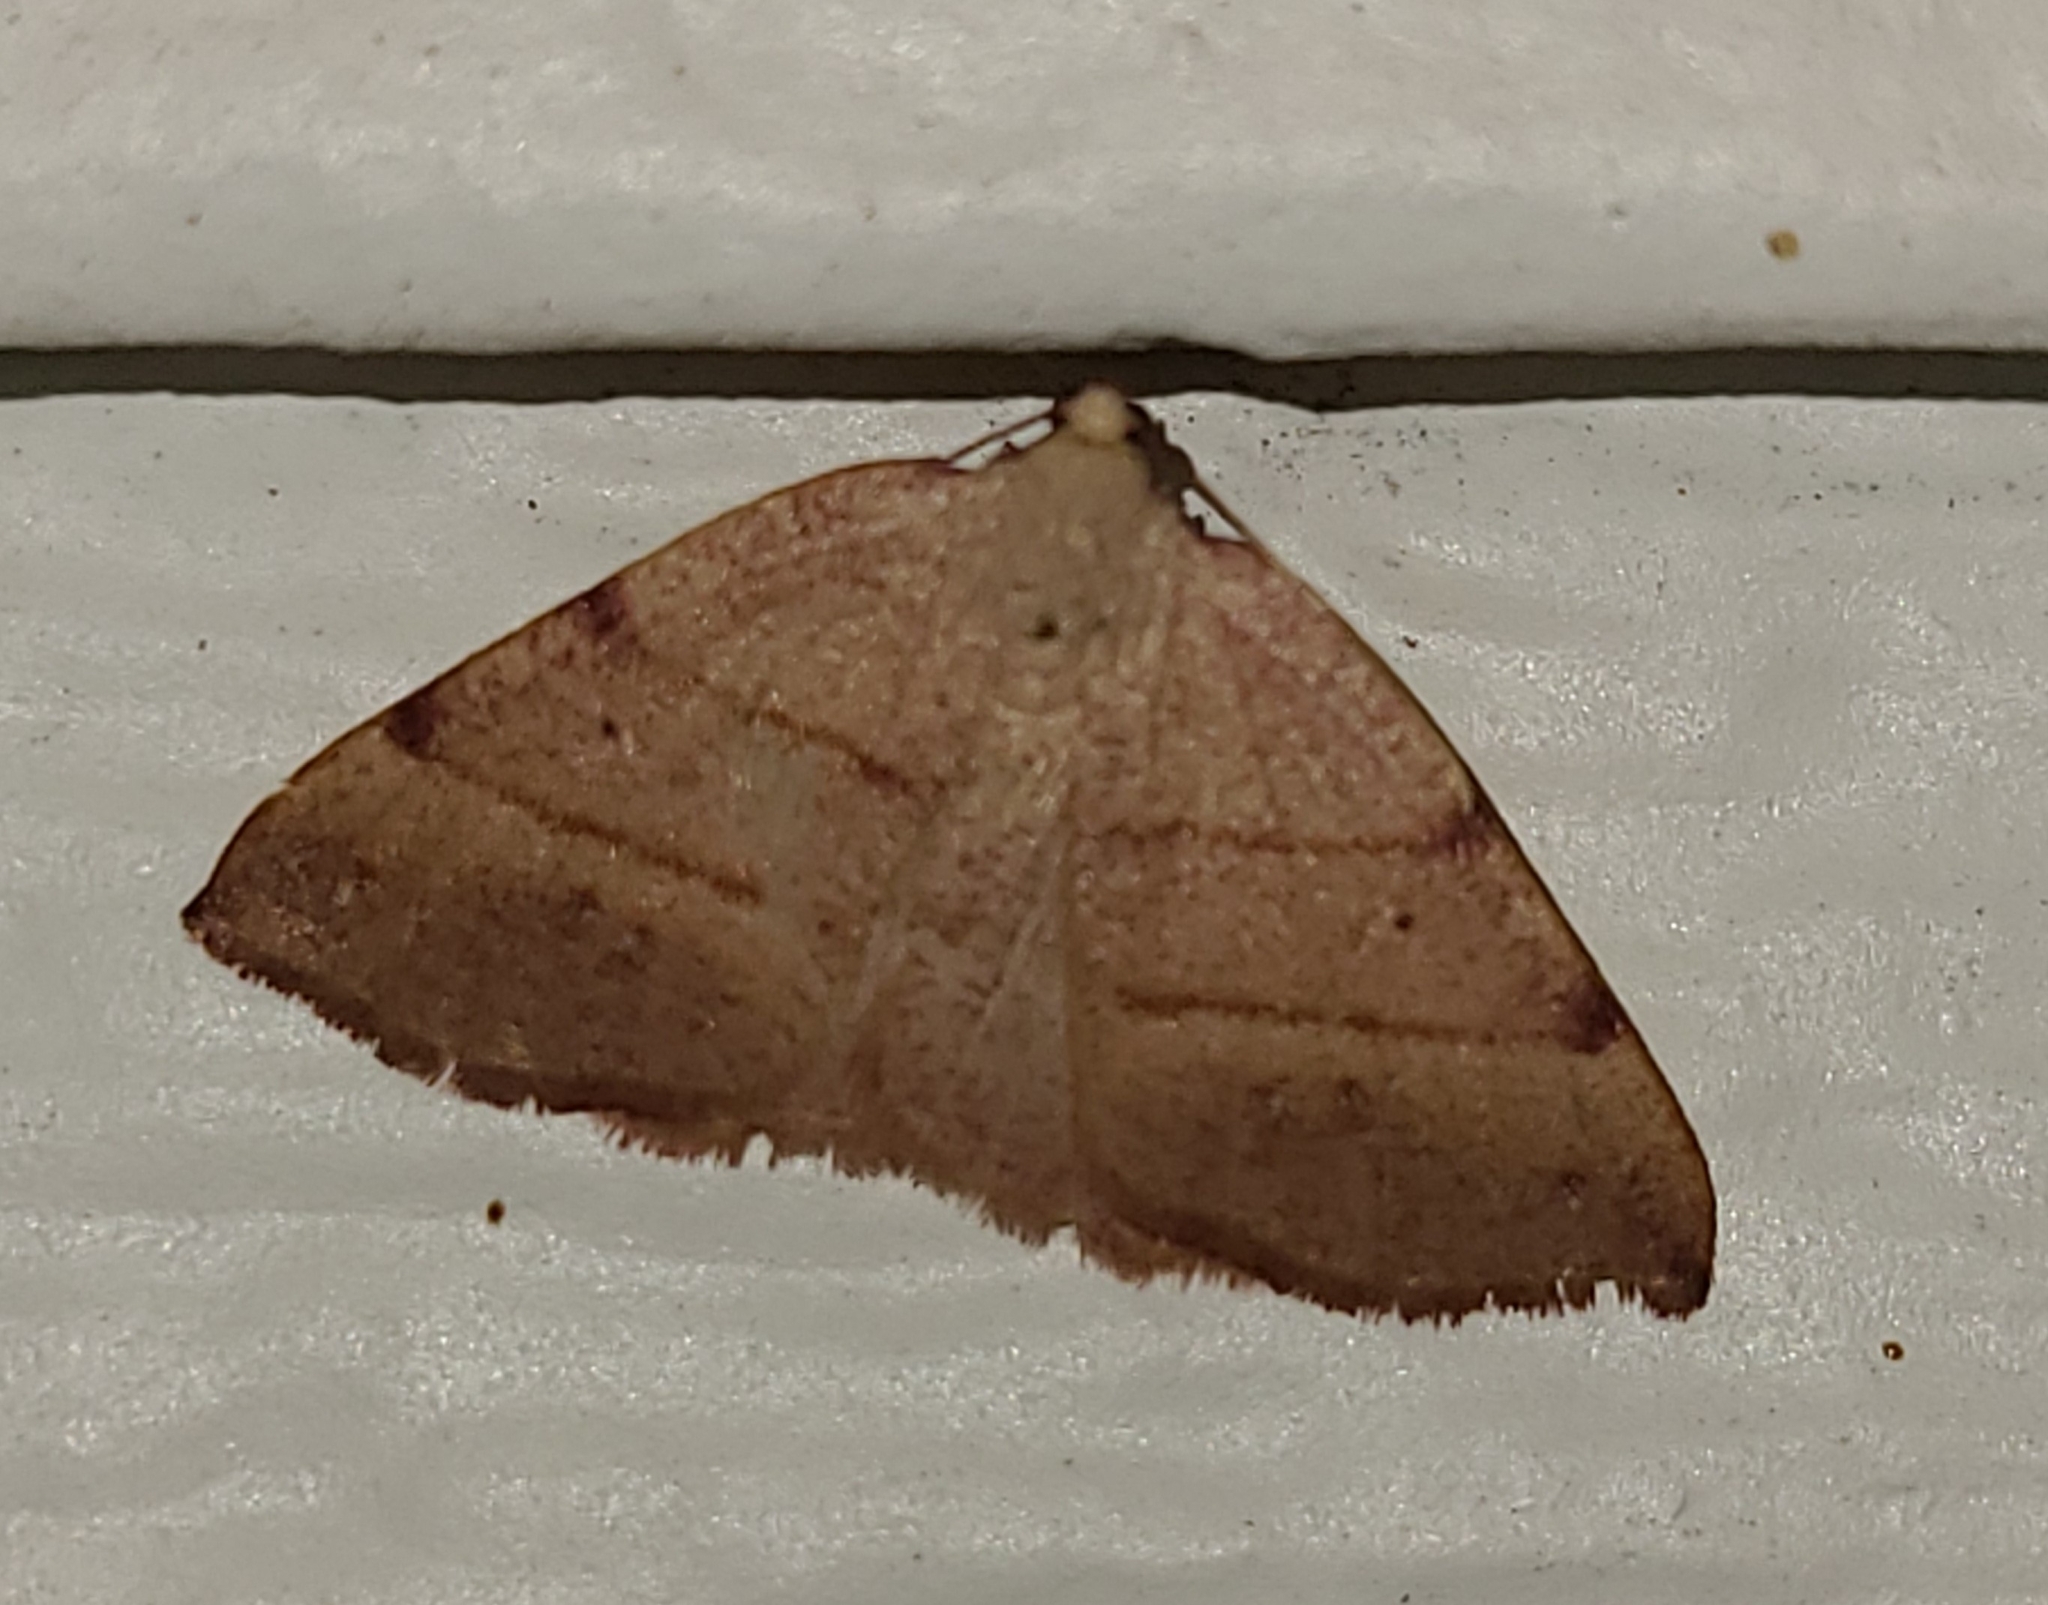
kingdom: Animalia
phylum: Arthropoda
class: Insecta
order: Lepidoptera
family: Geometridae
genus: Drepanulatrix
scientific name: Drepanulatrix bifilata
